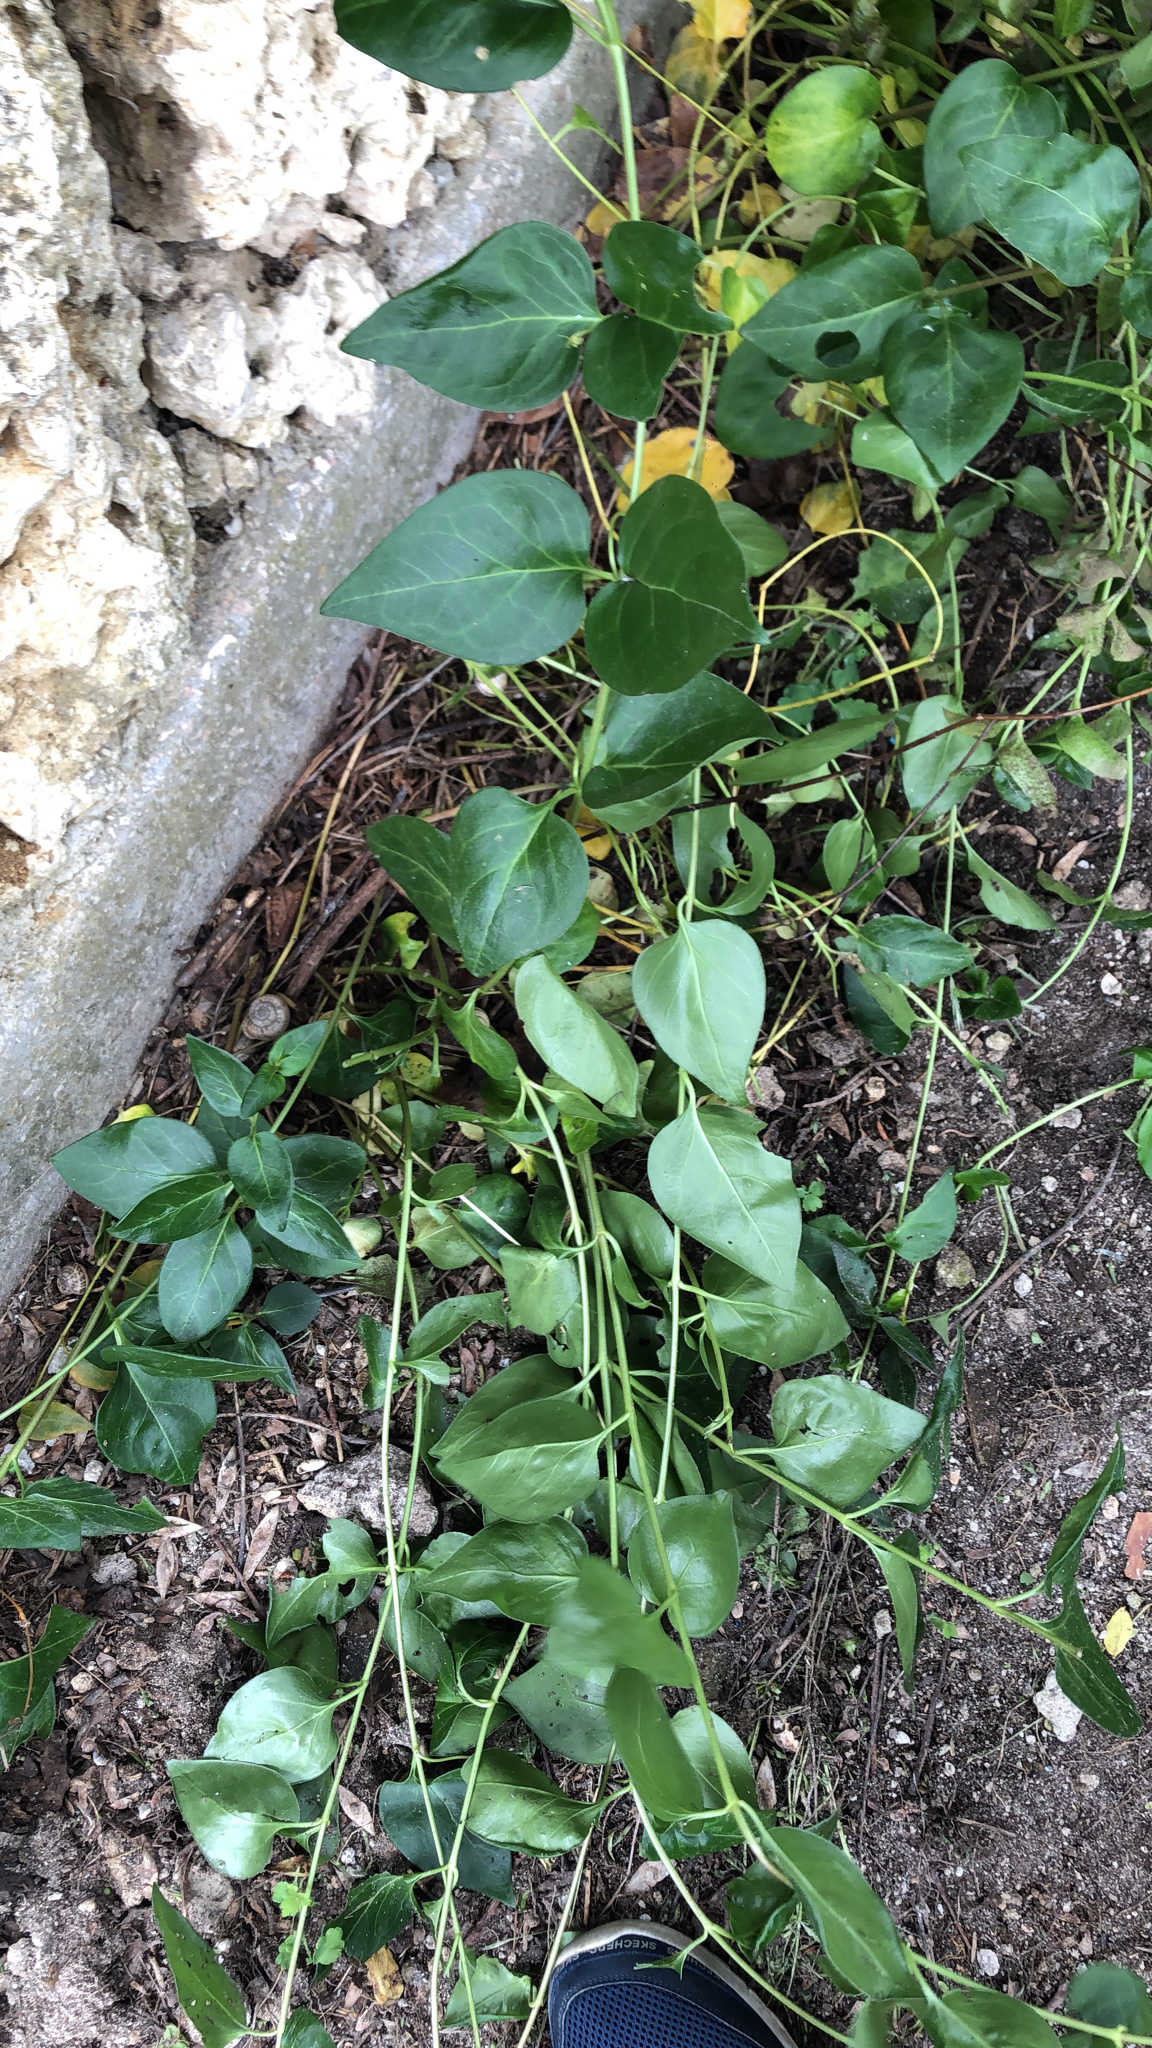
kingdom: Plantae
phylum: Tracheophyta
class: Magnoliopsida
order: Gentianales
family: Apocynaceae
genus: Vinca
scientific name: Vinca major
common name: Greater periwinkle
